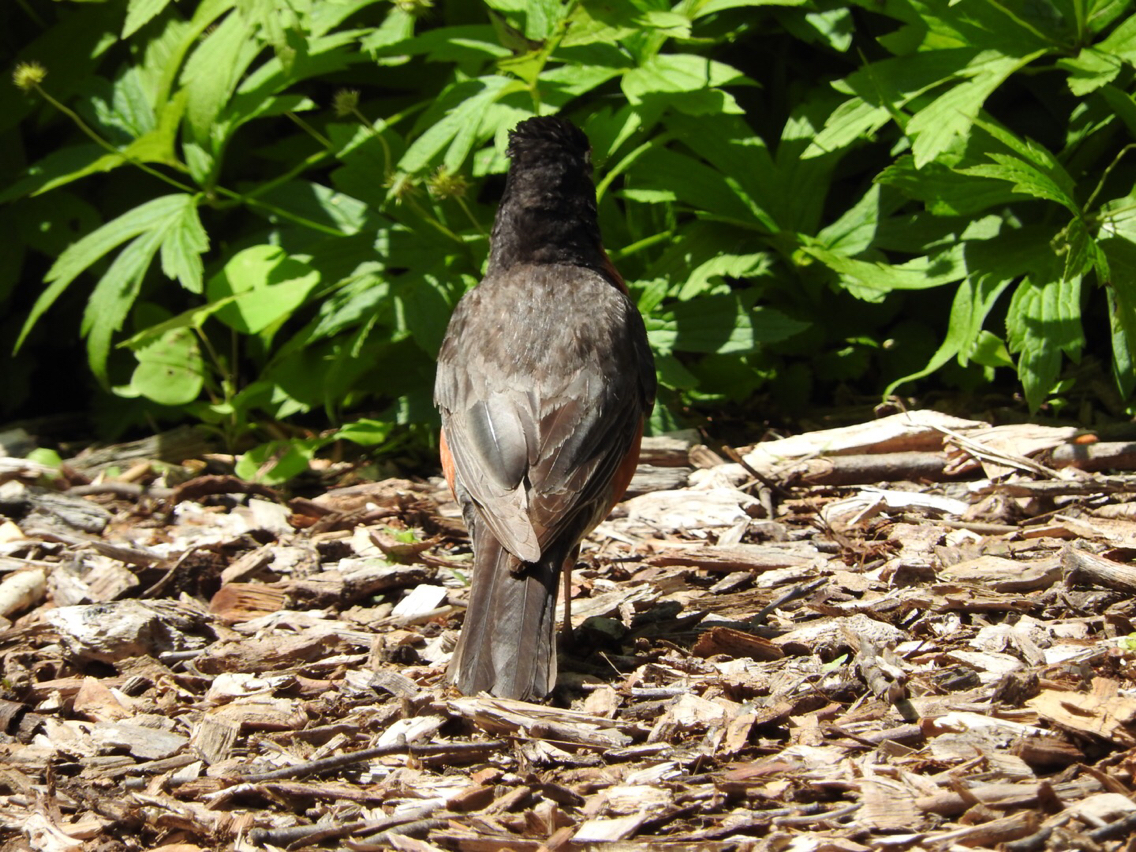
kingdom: Animalia
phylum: Chordata
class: Aves
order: Passeriformes
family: Turdidae
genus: Turdus
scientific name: Turdus migratorius
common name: American robin
